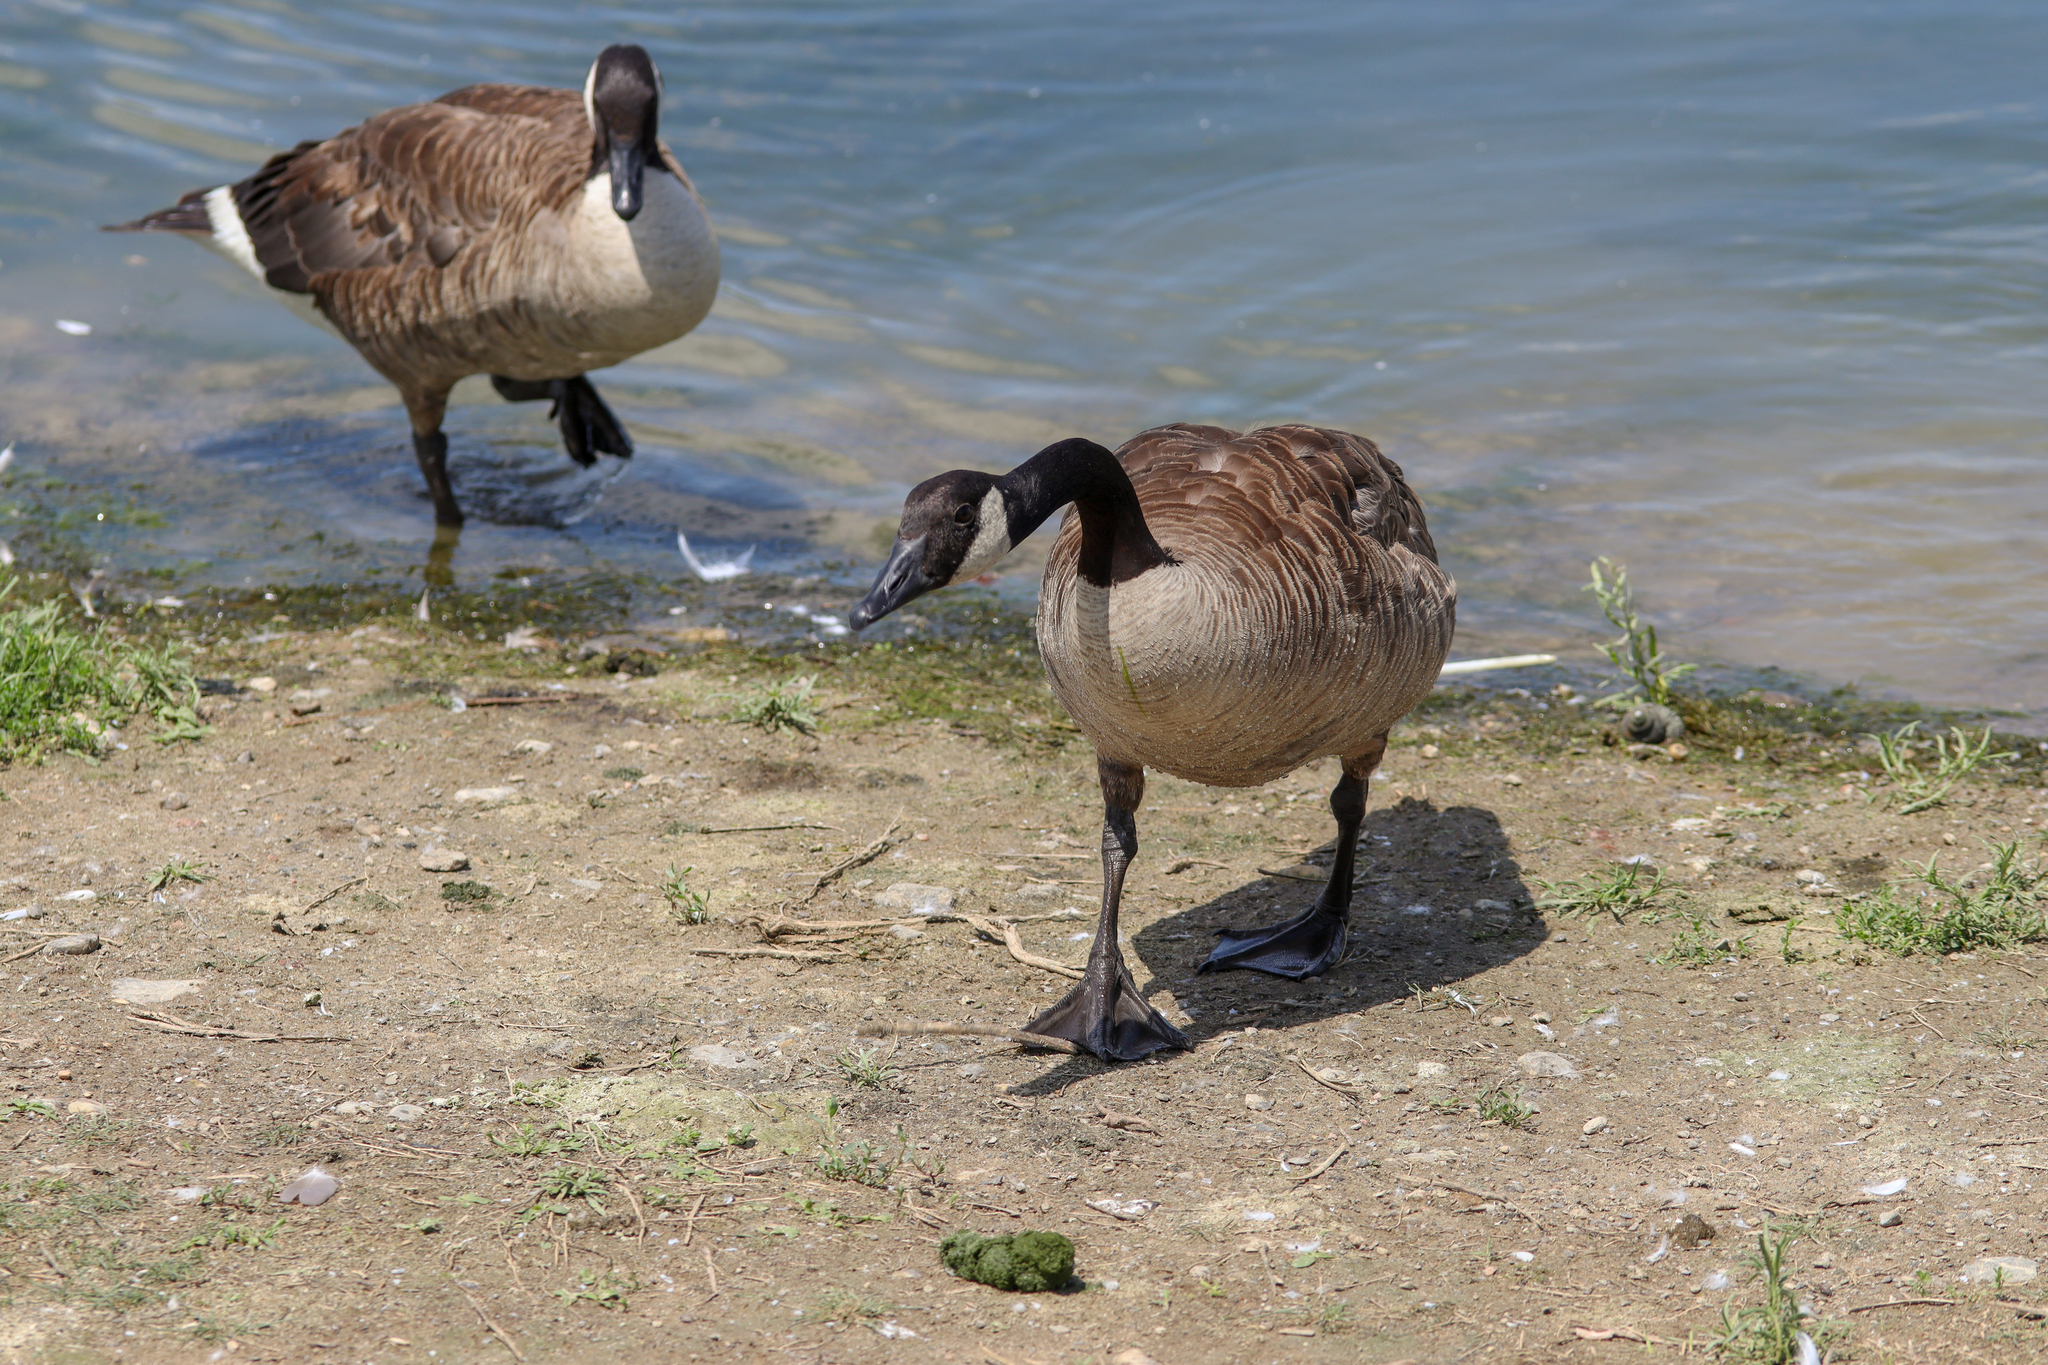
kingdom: Animalia
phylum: Chordata
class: Aves
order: Anseriformes
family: Anatidae
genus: Branta
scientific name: Branta canadensis
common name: Canada goose
